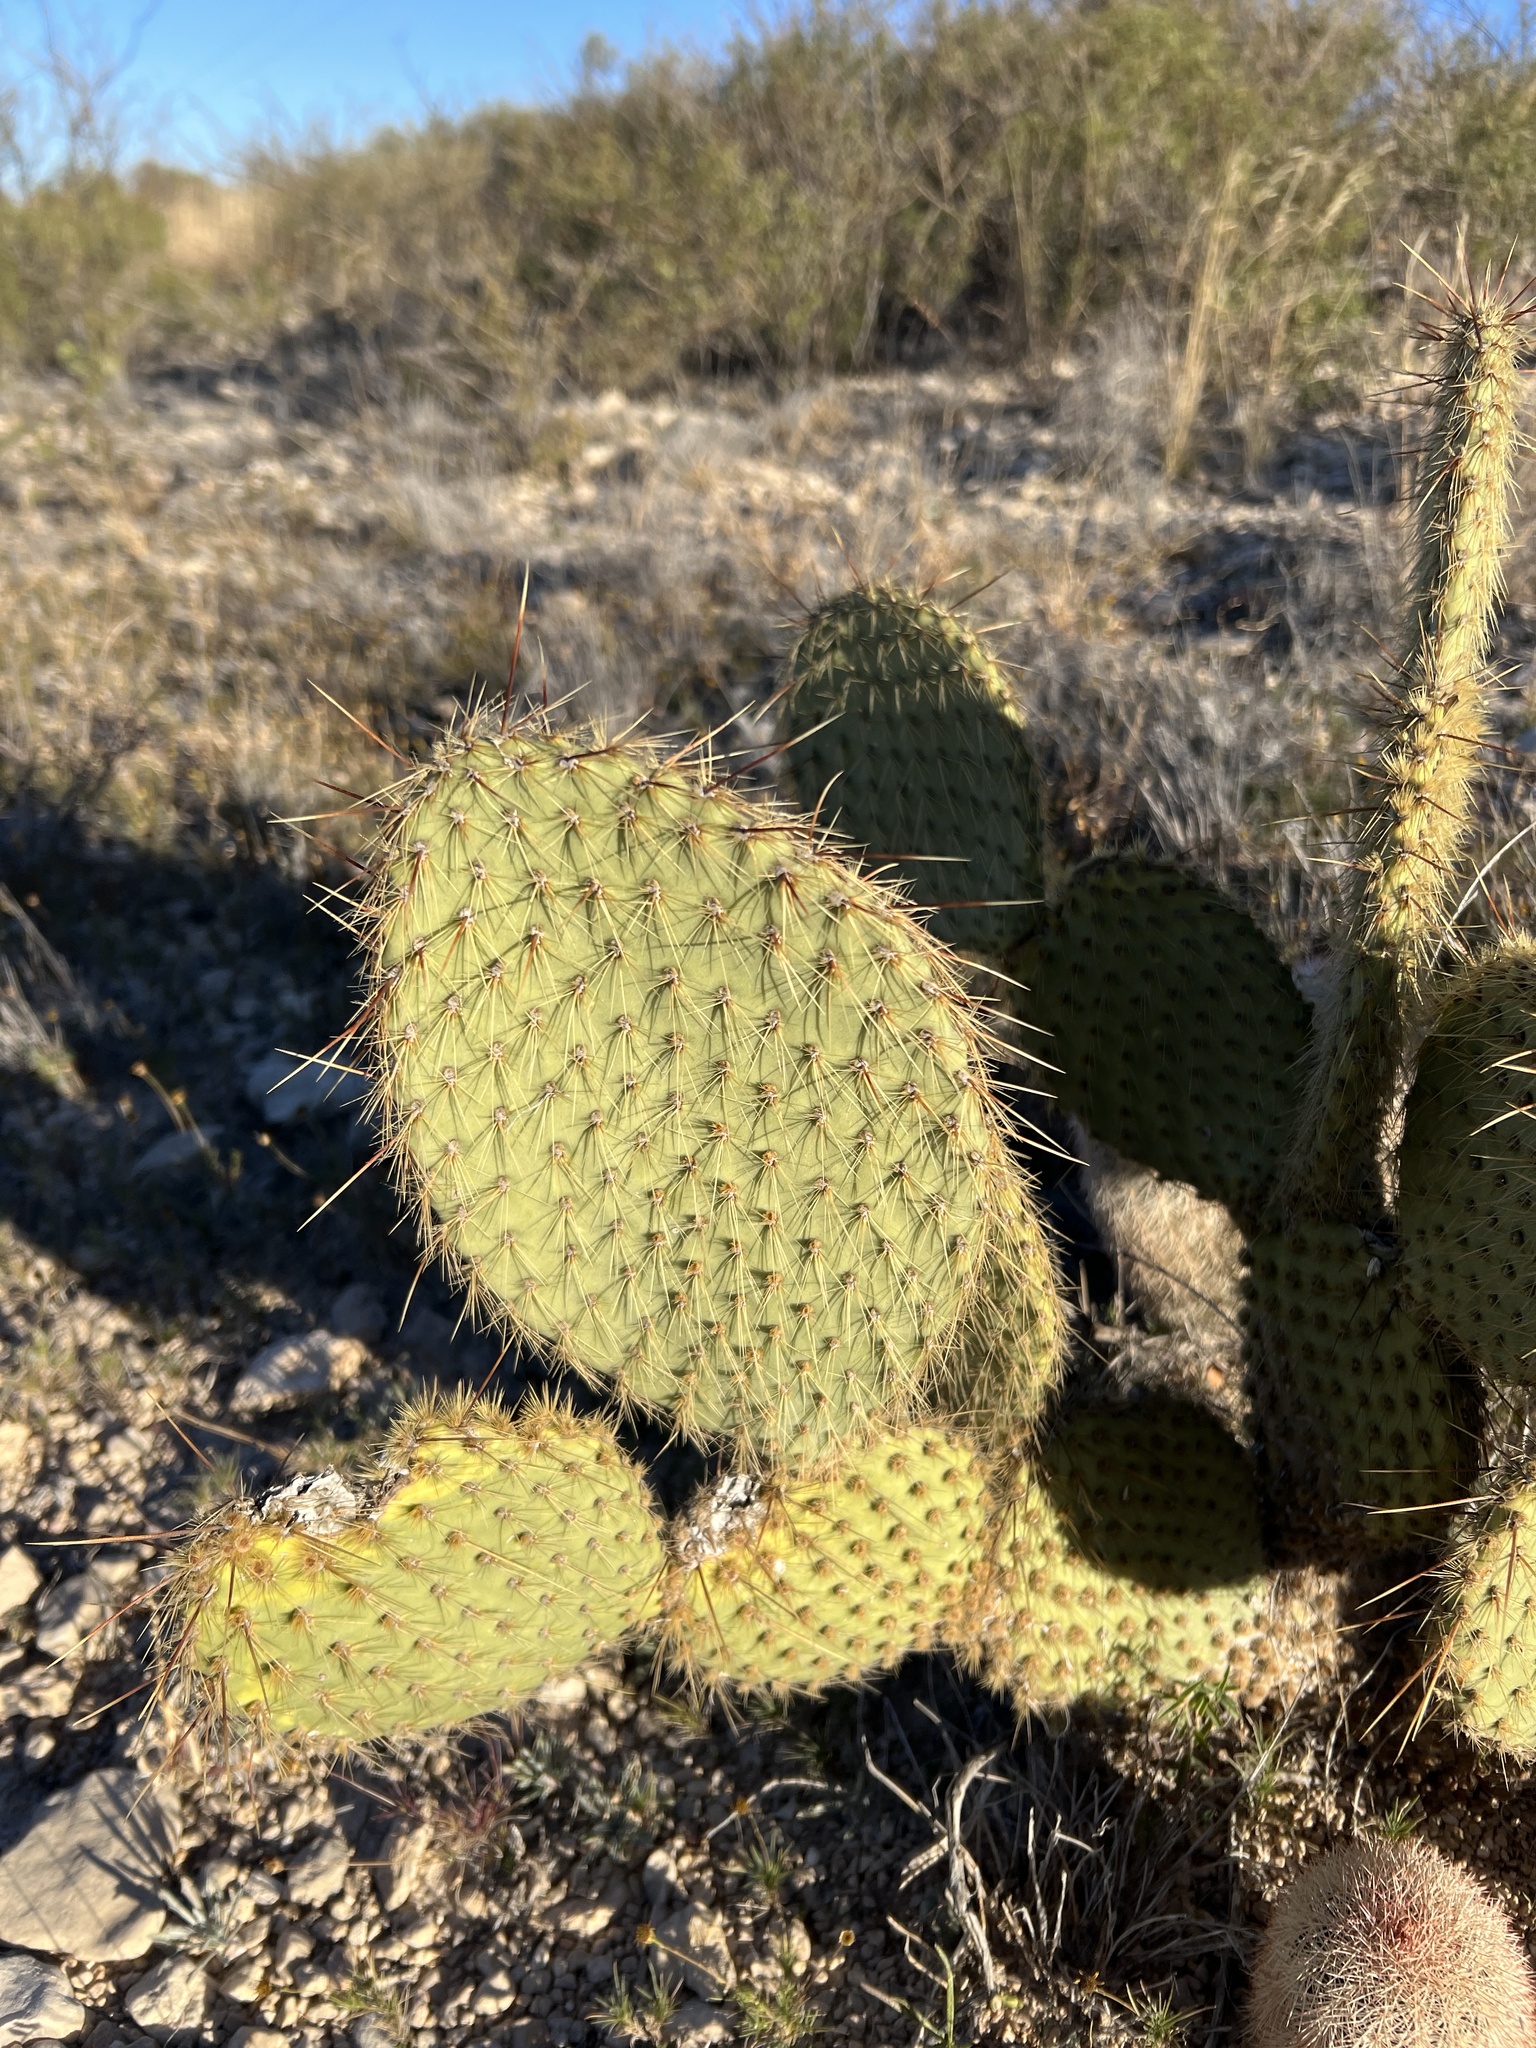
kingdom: Plantae
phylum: Tracheophyta
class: Magnoliopsida
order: Caryophyllales
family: Cactaceae
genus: Opuntia
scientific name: Opuntia strigil
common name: Marble-fruit prickly-pear
